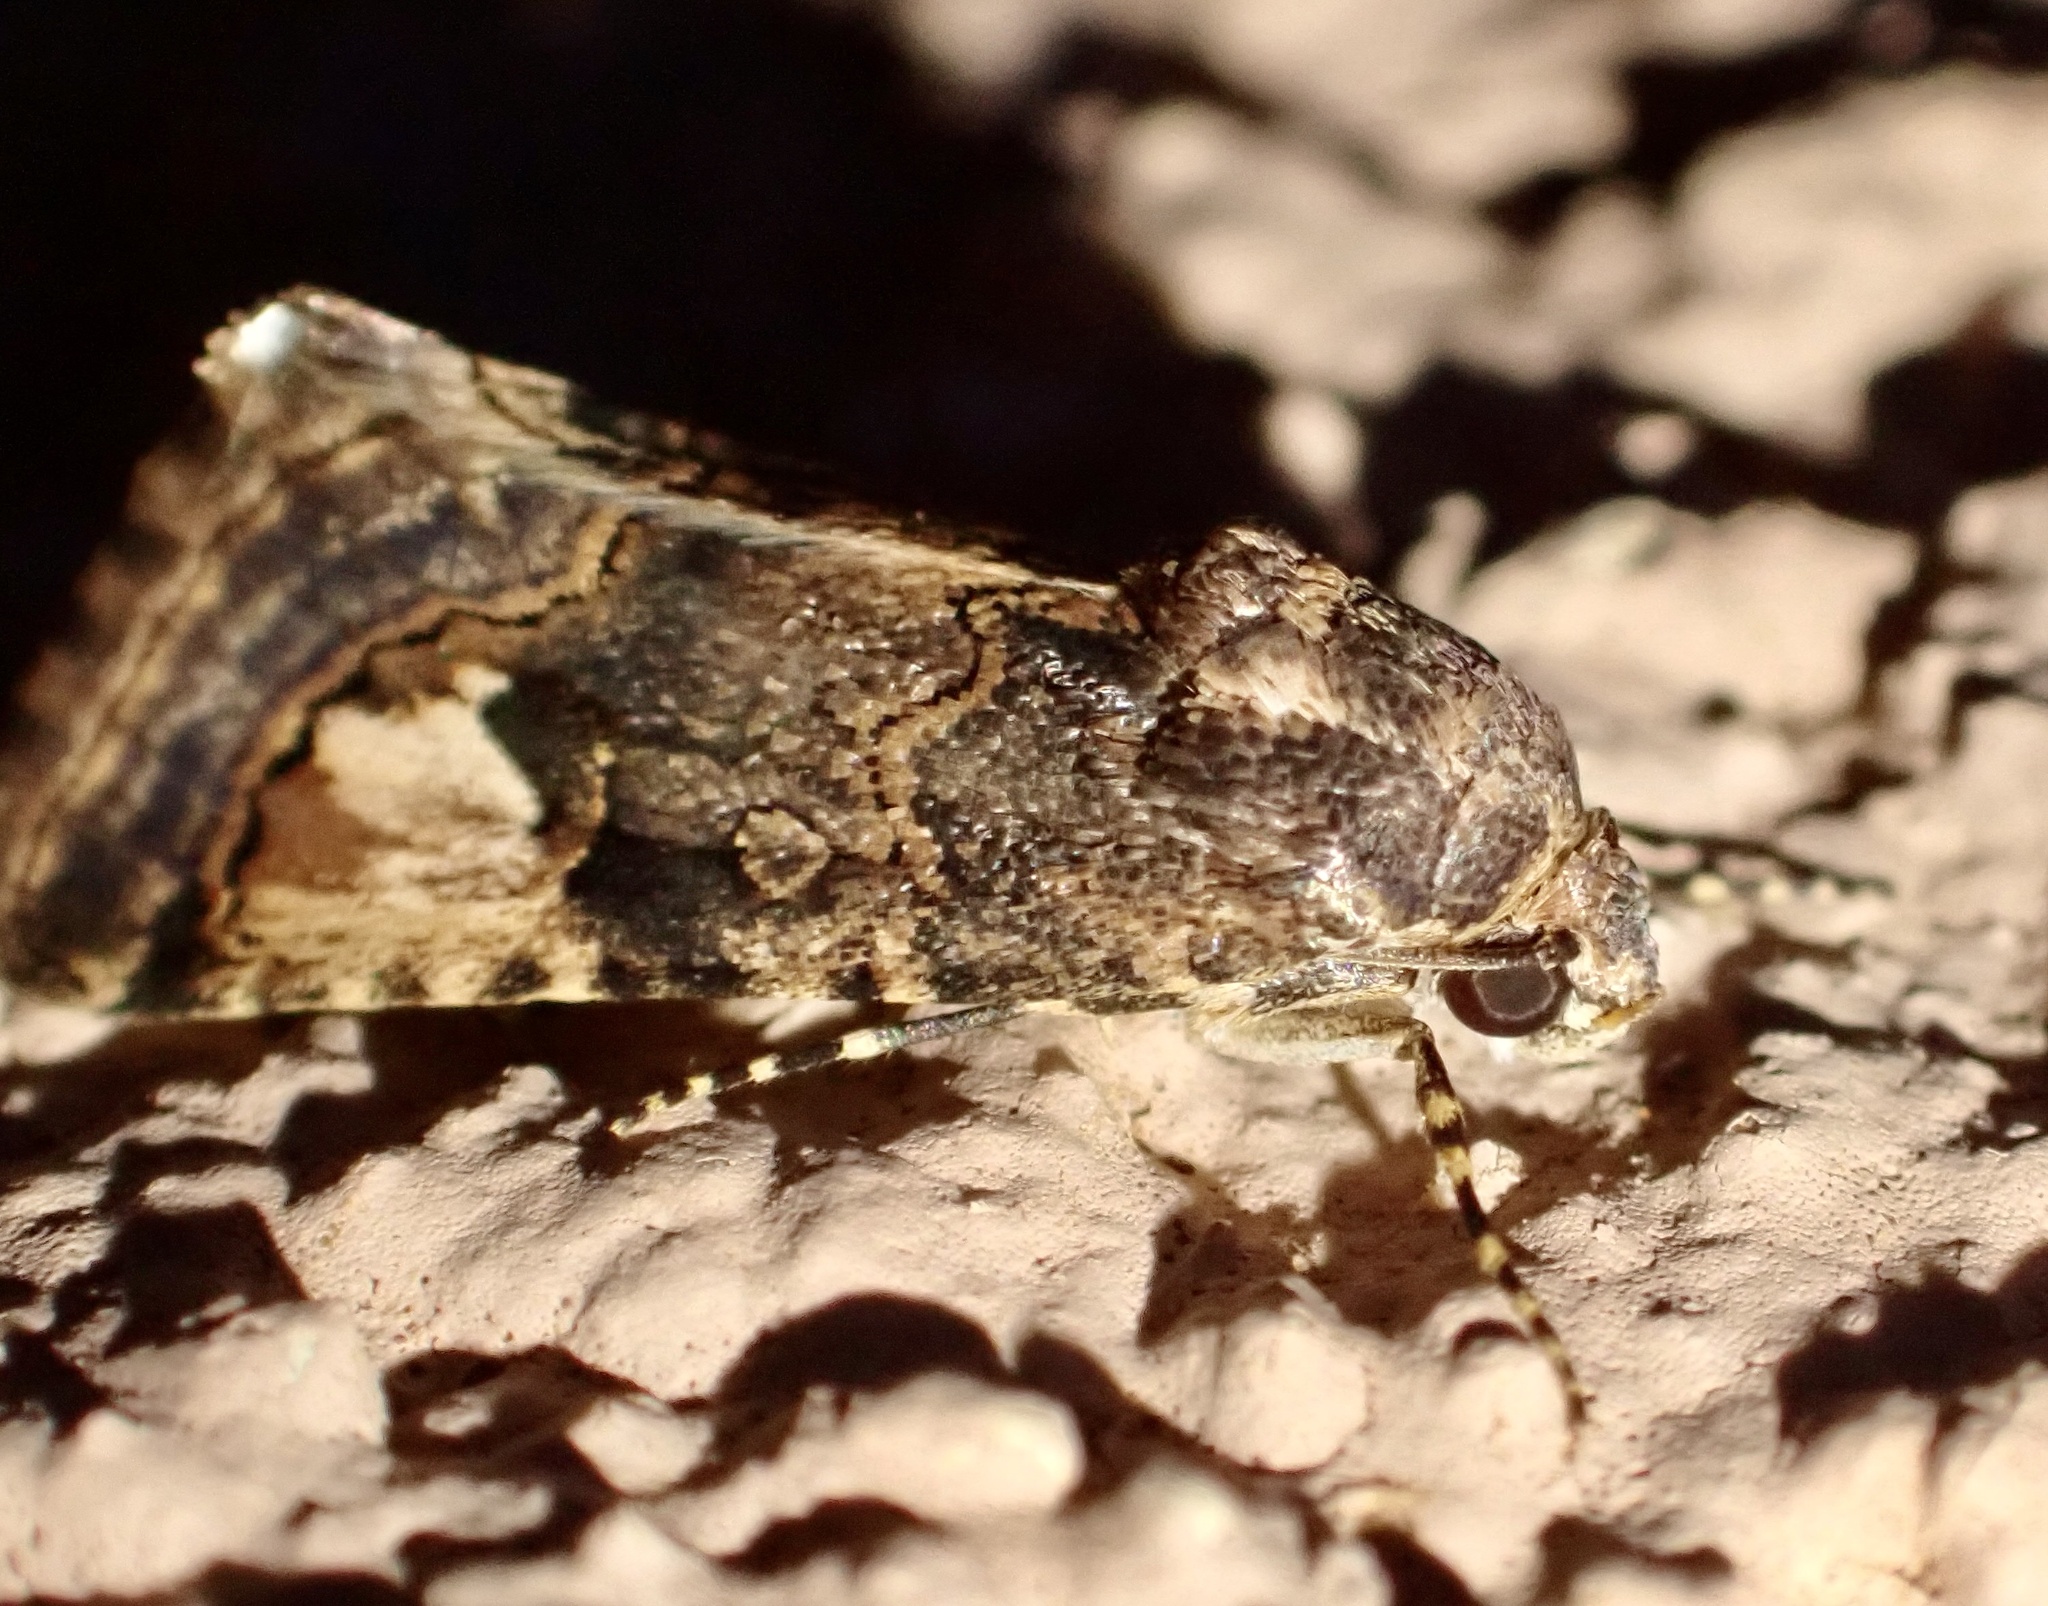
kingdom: Animalia
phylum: Arthropoda
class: Insecta
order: Lepidoptera
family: Erebidae
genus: Epharmottomena
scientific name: Epharmottomena eremophila
